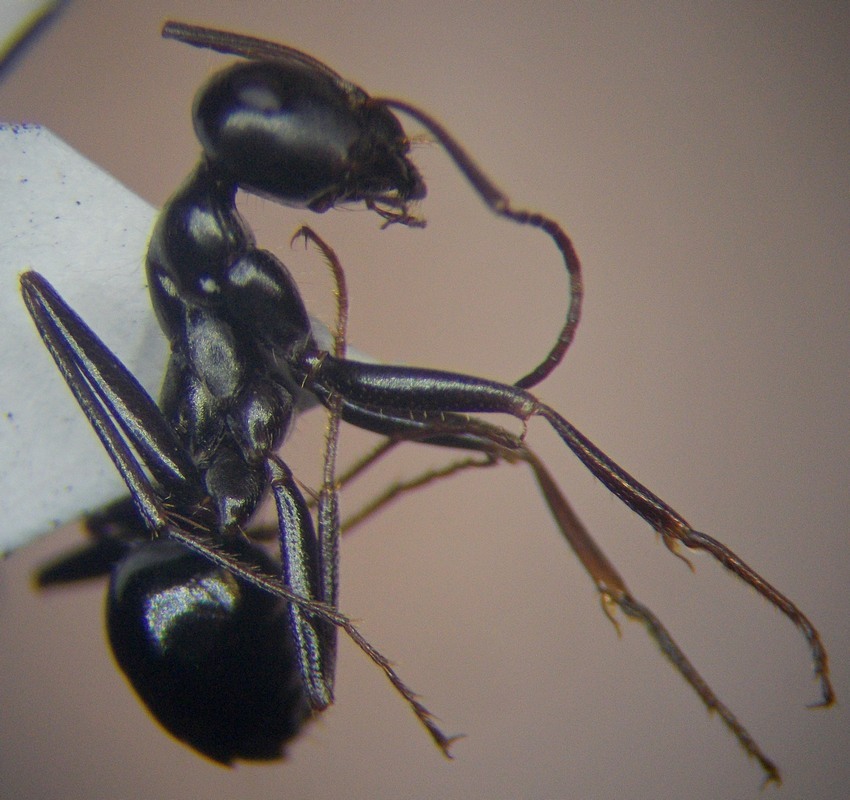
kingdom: Animalia
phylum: Arthropoda
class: Insecta
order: Hymenoptera
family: Formicidae
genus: Cataglyphis
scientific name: Cataglyphis aenescens
